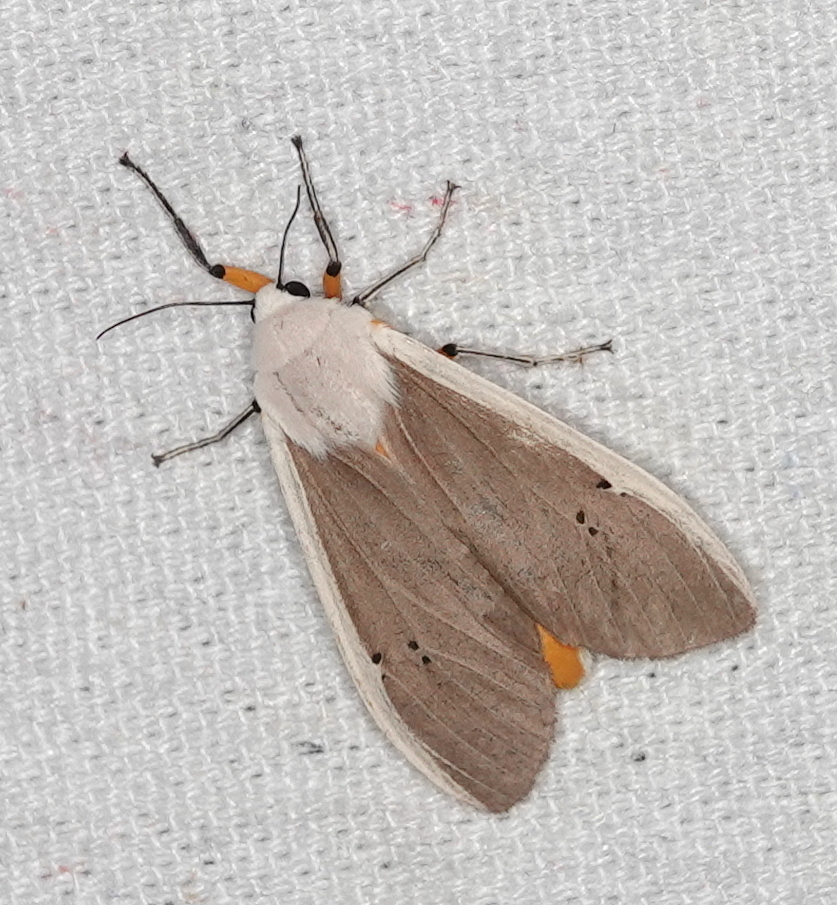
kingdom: Animalia
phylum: Arthropoda
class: Insecta
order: Lepidoptera
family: Erebidae
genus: Creatonotos
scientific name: Creatonotos transiens
